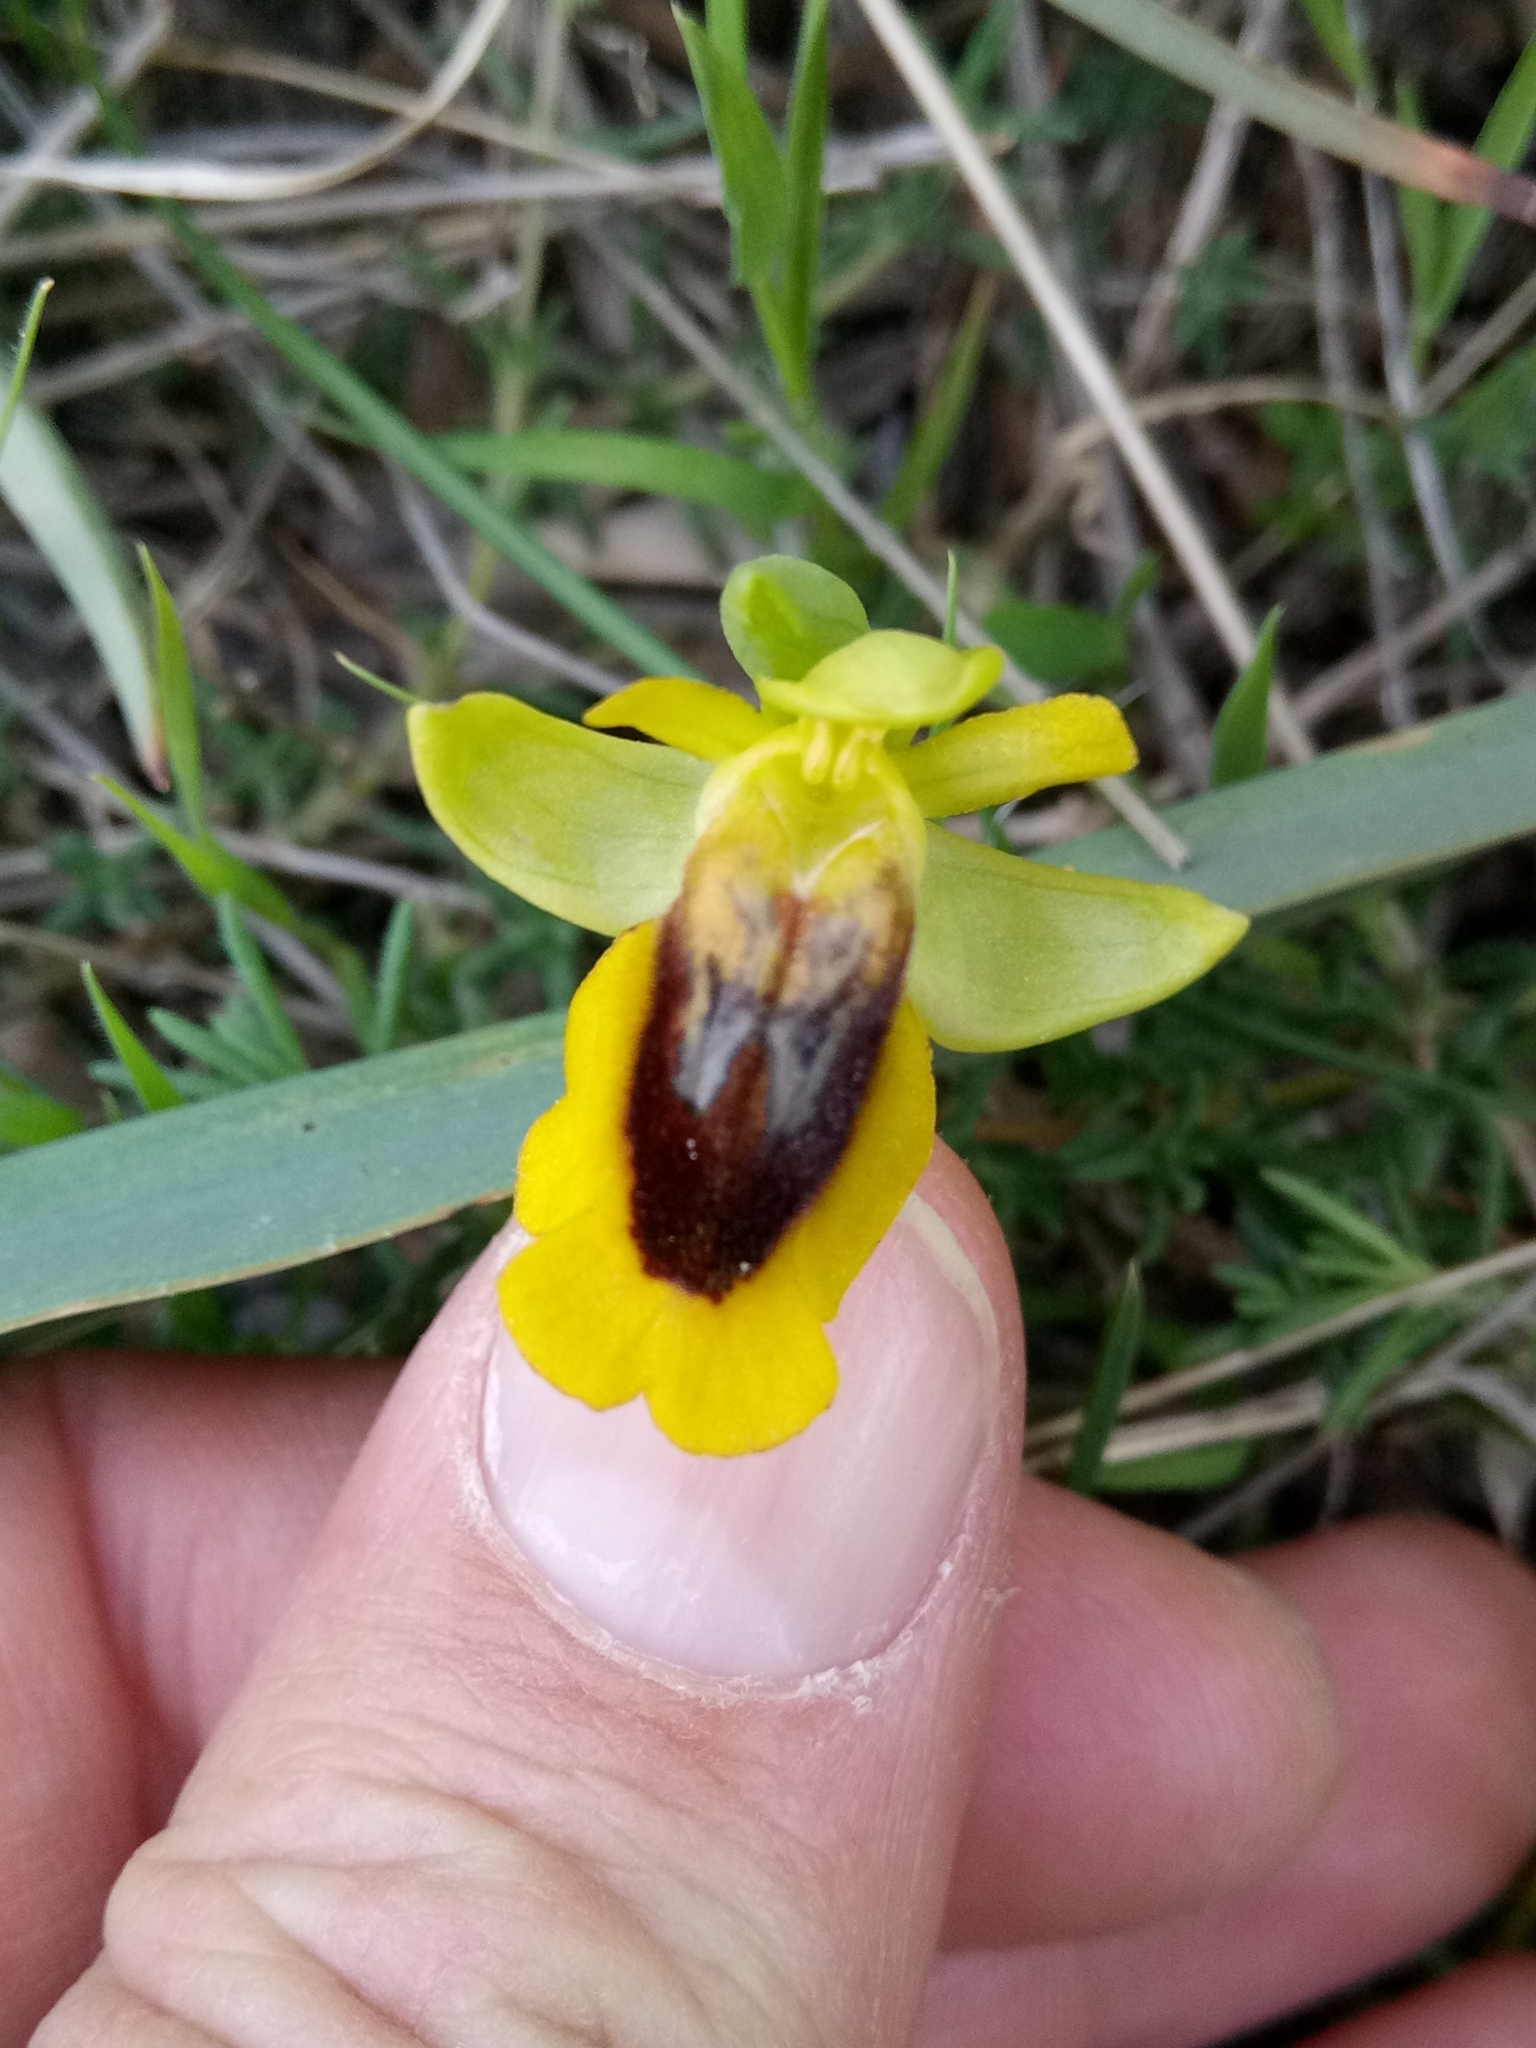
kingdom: Plantae
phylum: Tracheophyta
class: Liliopsida
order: Asparagales
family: Orchidaceae
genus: Ophrys
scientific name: Ophrys lutea
